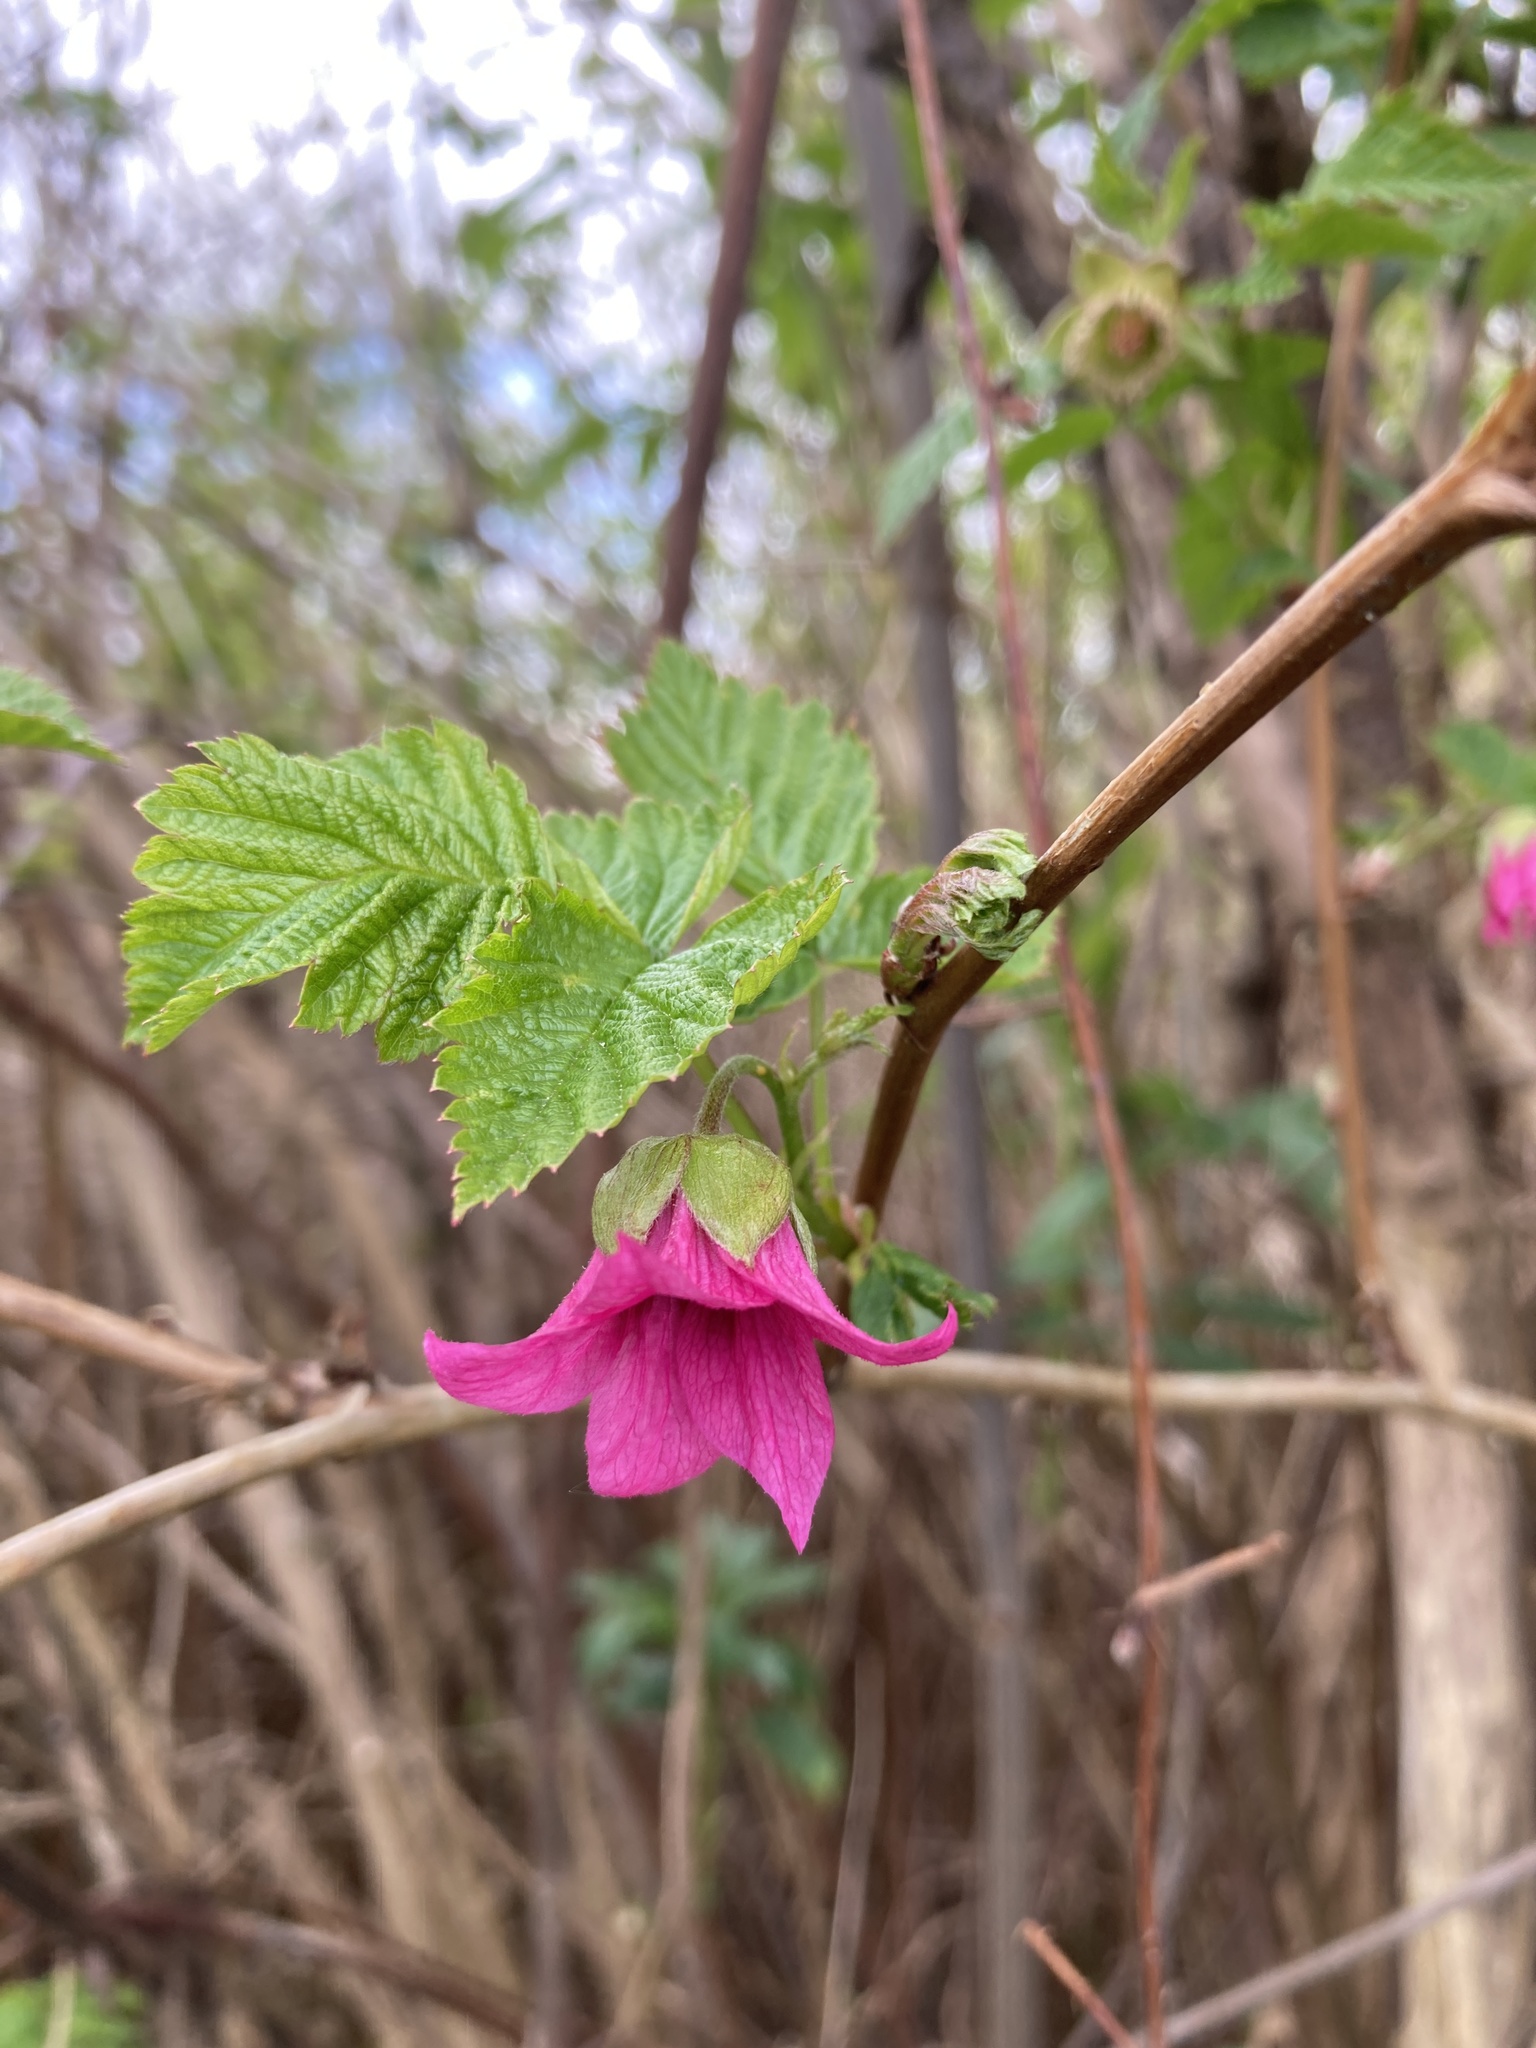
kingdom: Plantae
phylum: Tracheophyta
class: Magnoliopsida
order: Rosales
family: Rosaceae
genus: Rubus
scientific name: Rubus spectabilis
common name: Salmonberry
